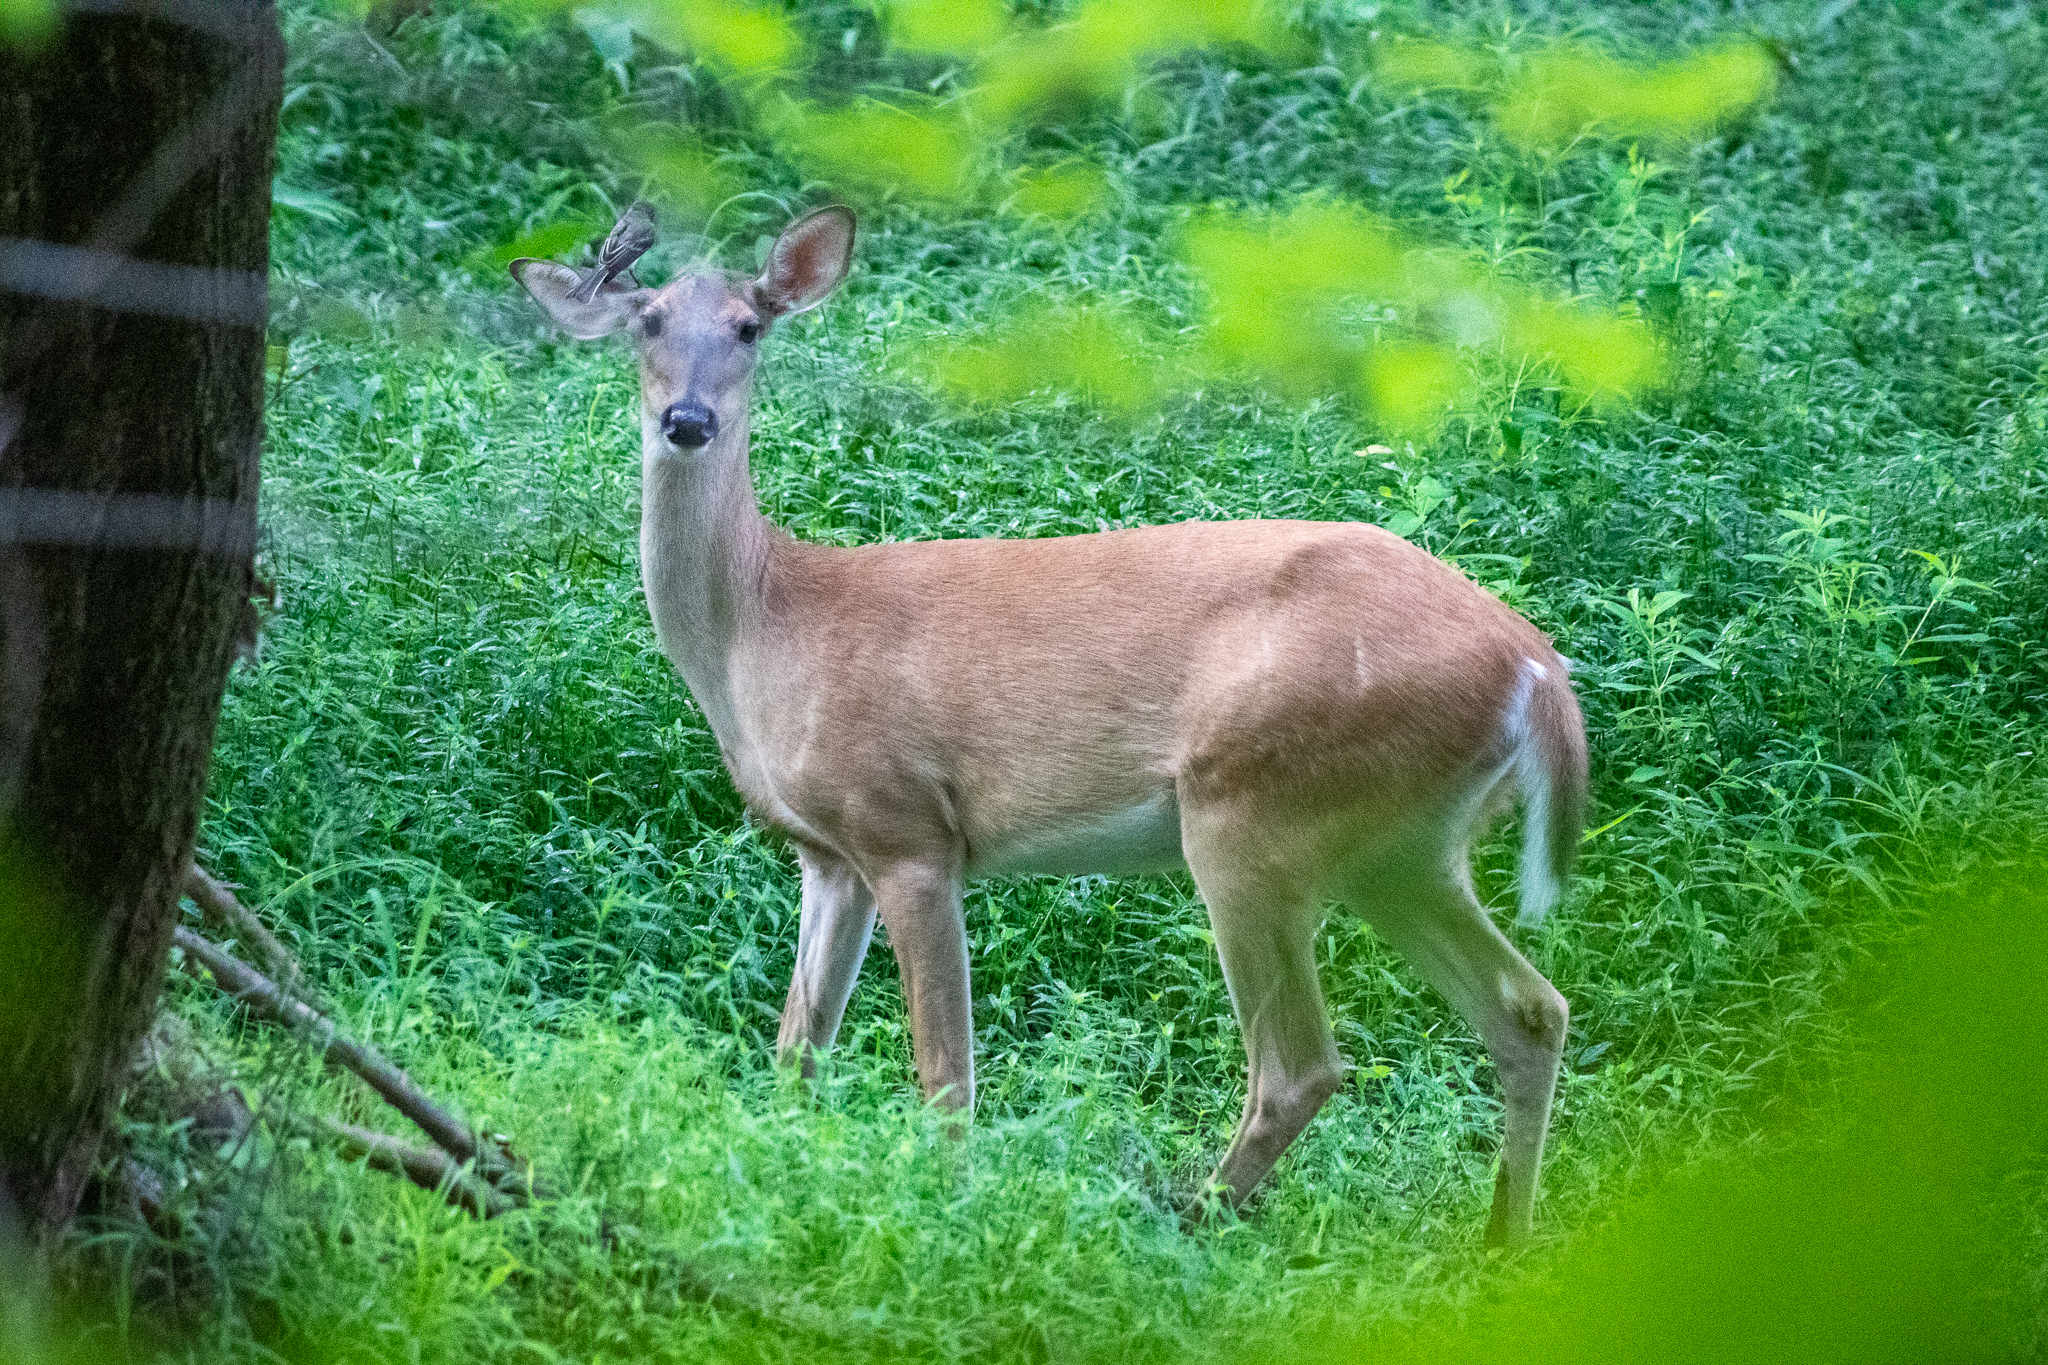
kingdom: Animalia
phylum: Chordata
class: Mammalia
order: Artiodactyla
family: Cervidae
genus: Odocoileus
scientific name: Odocoileus virginianus
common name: White-tailed deer
